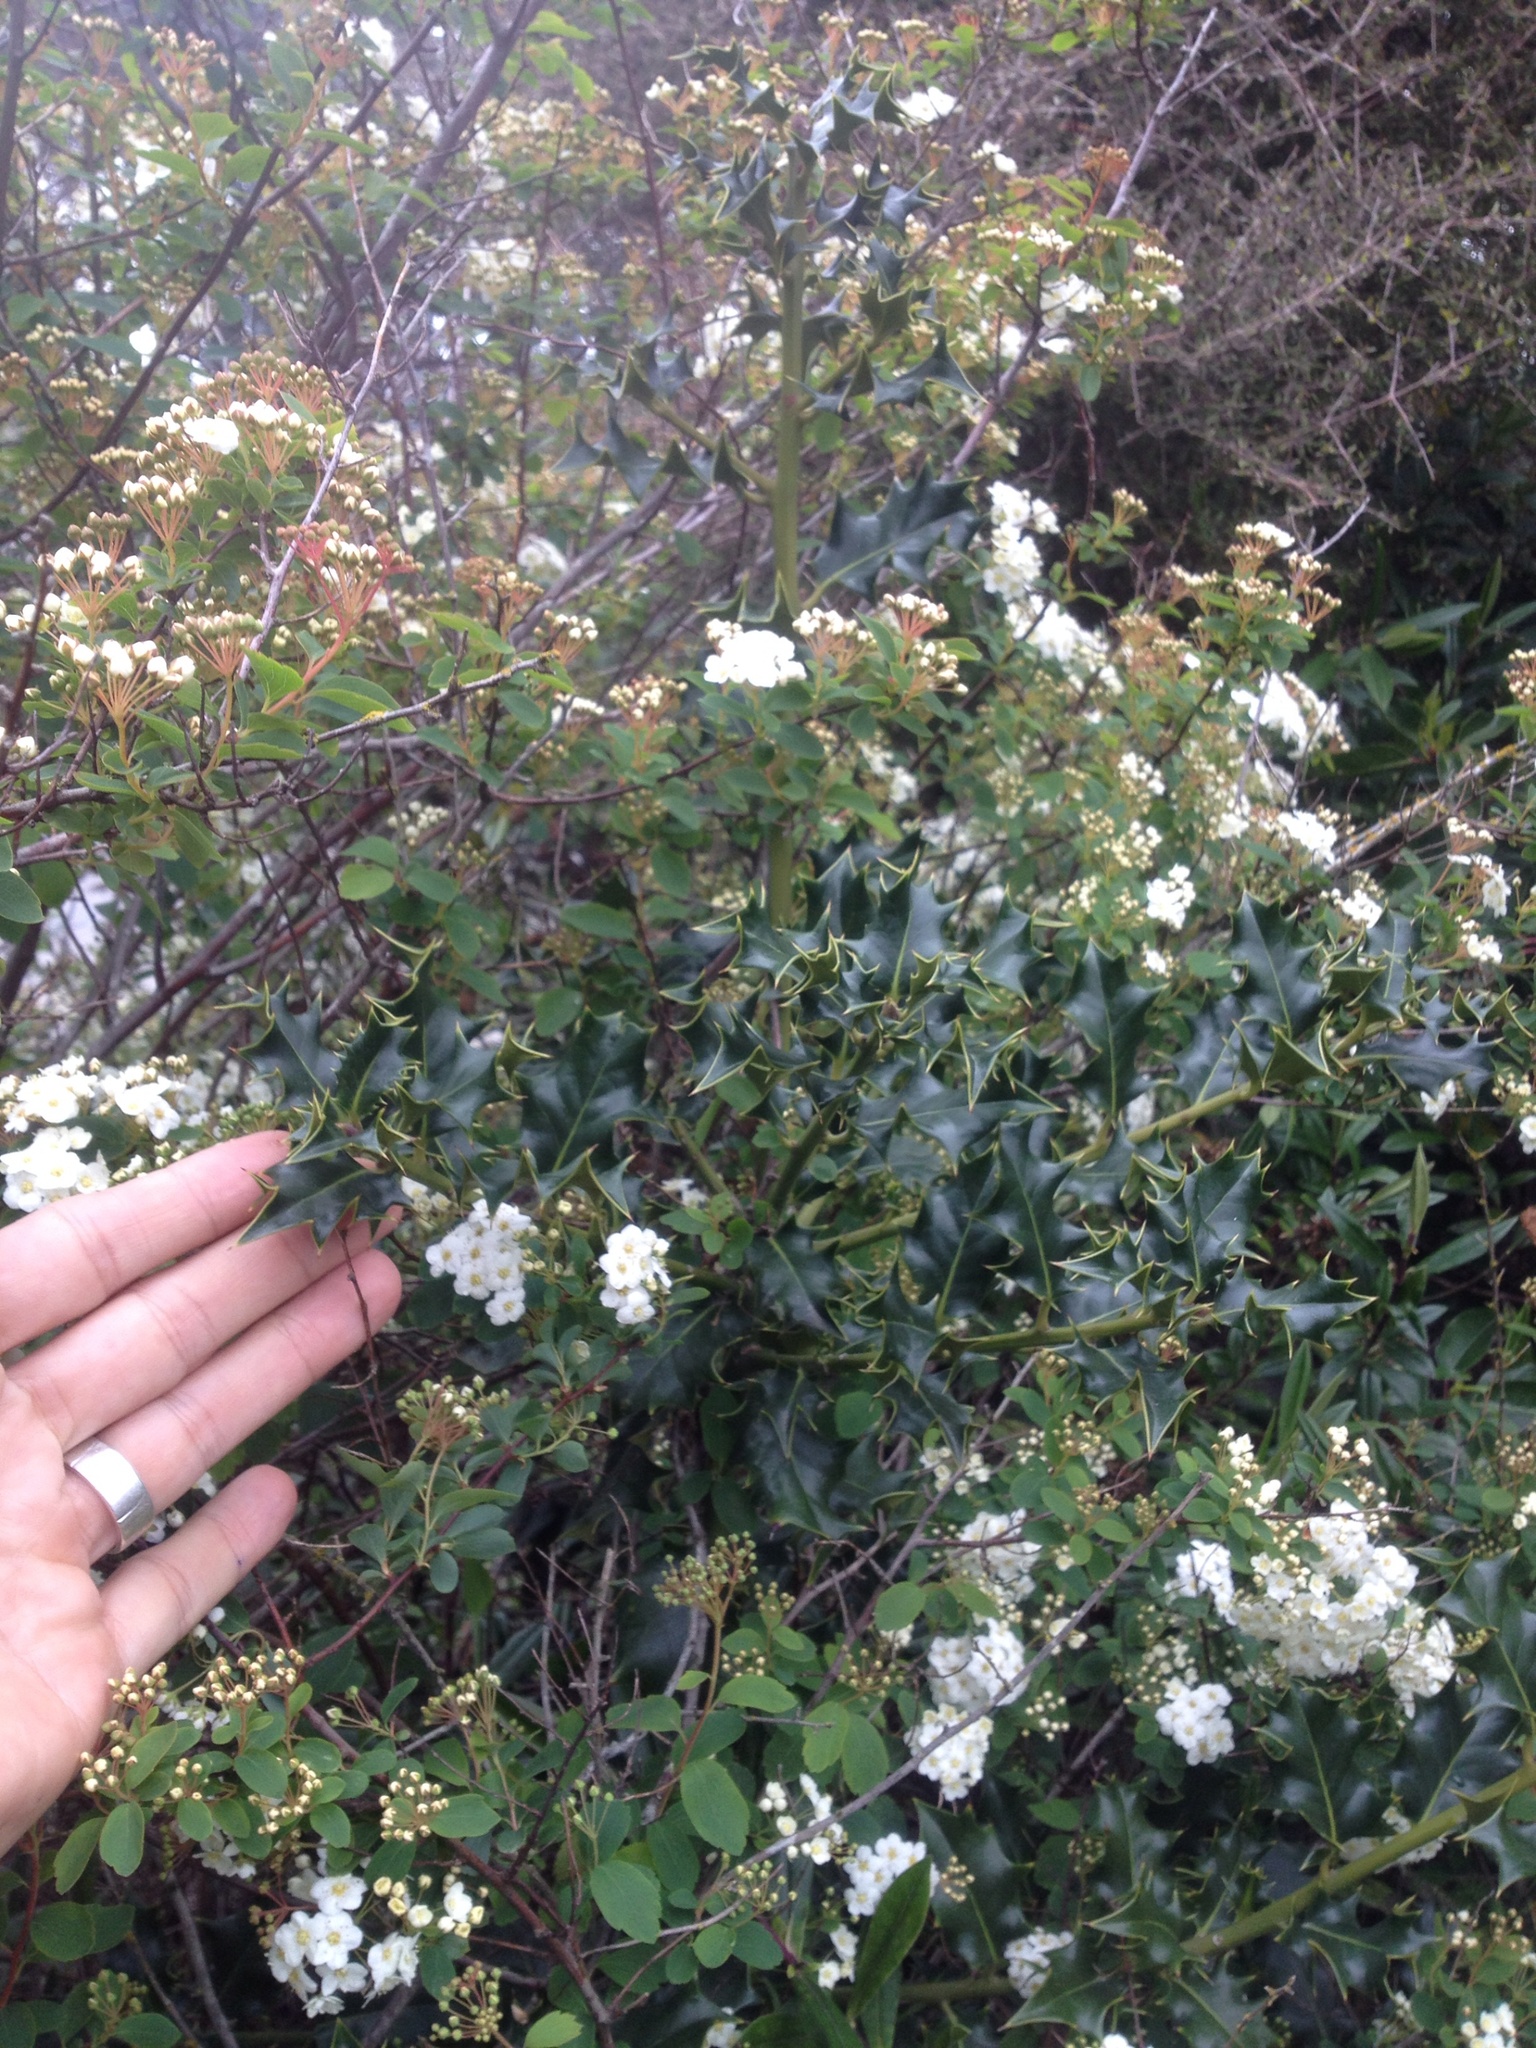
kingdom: Plantae
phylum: Tracheophyta
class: Magnoliopsida
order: Aquifoliales
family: Aquifoliaceae
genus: Ilex
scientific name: Ilex aquifolium
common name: English holly
